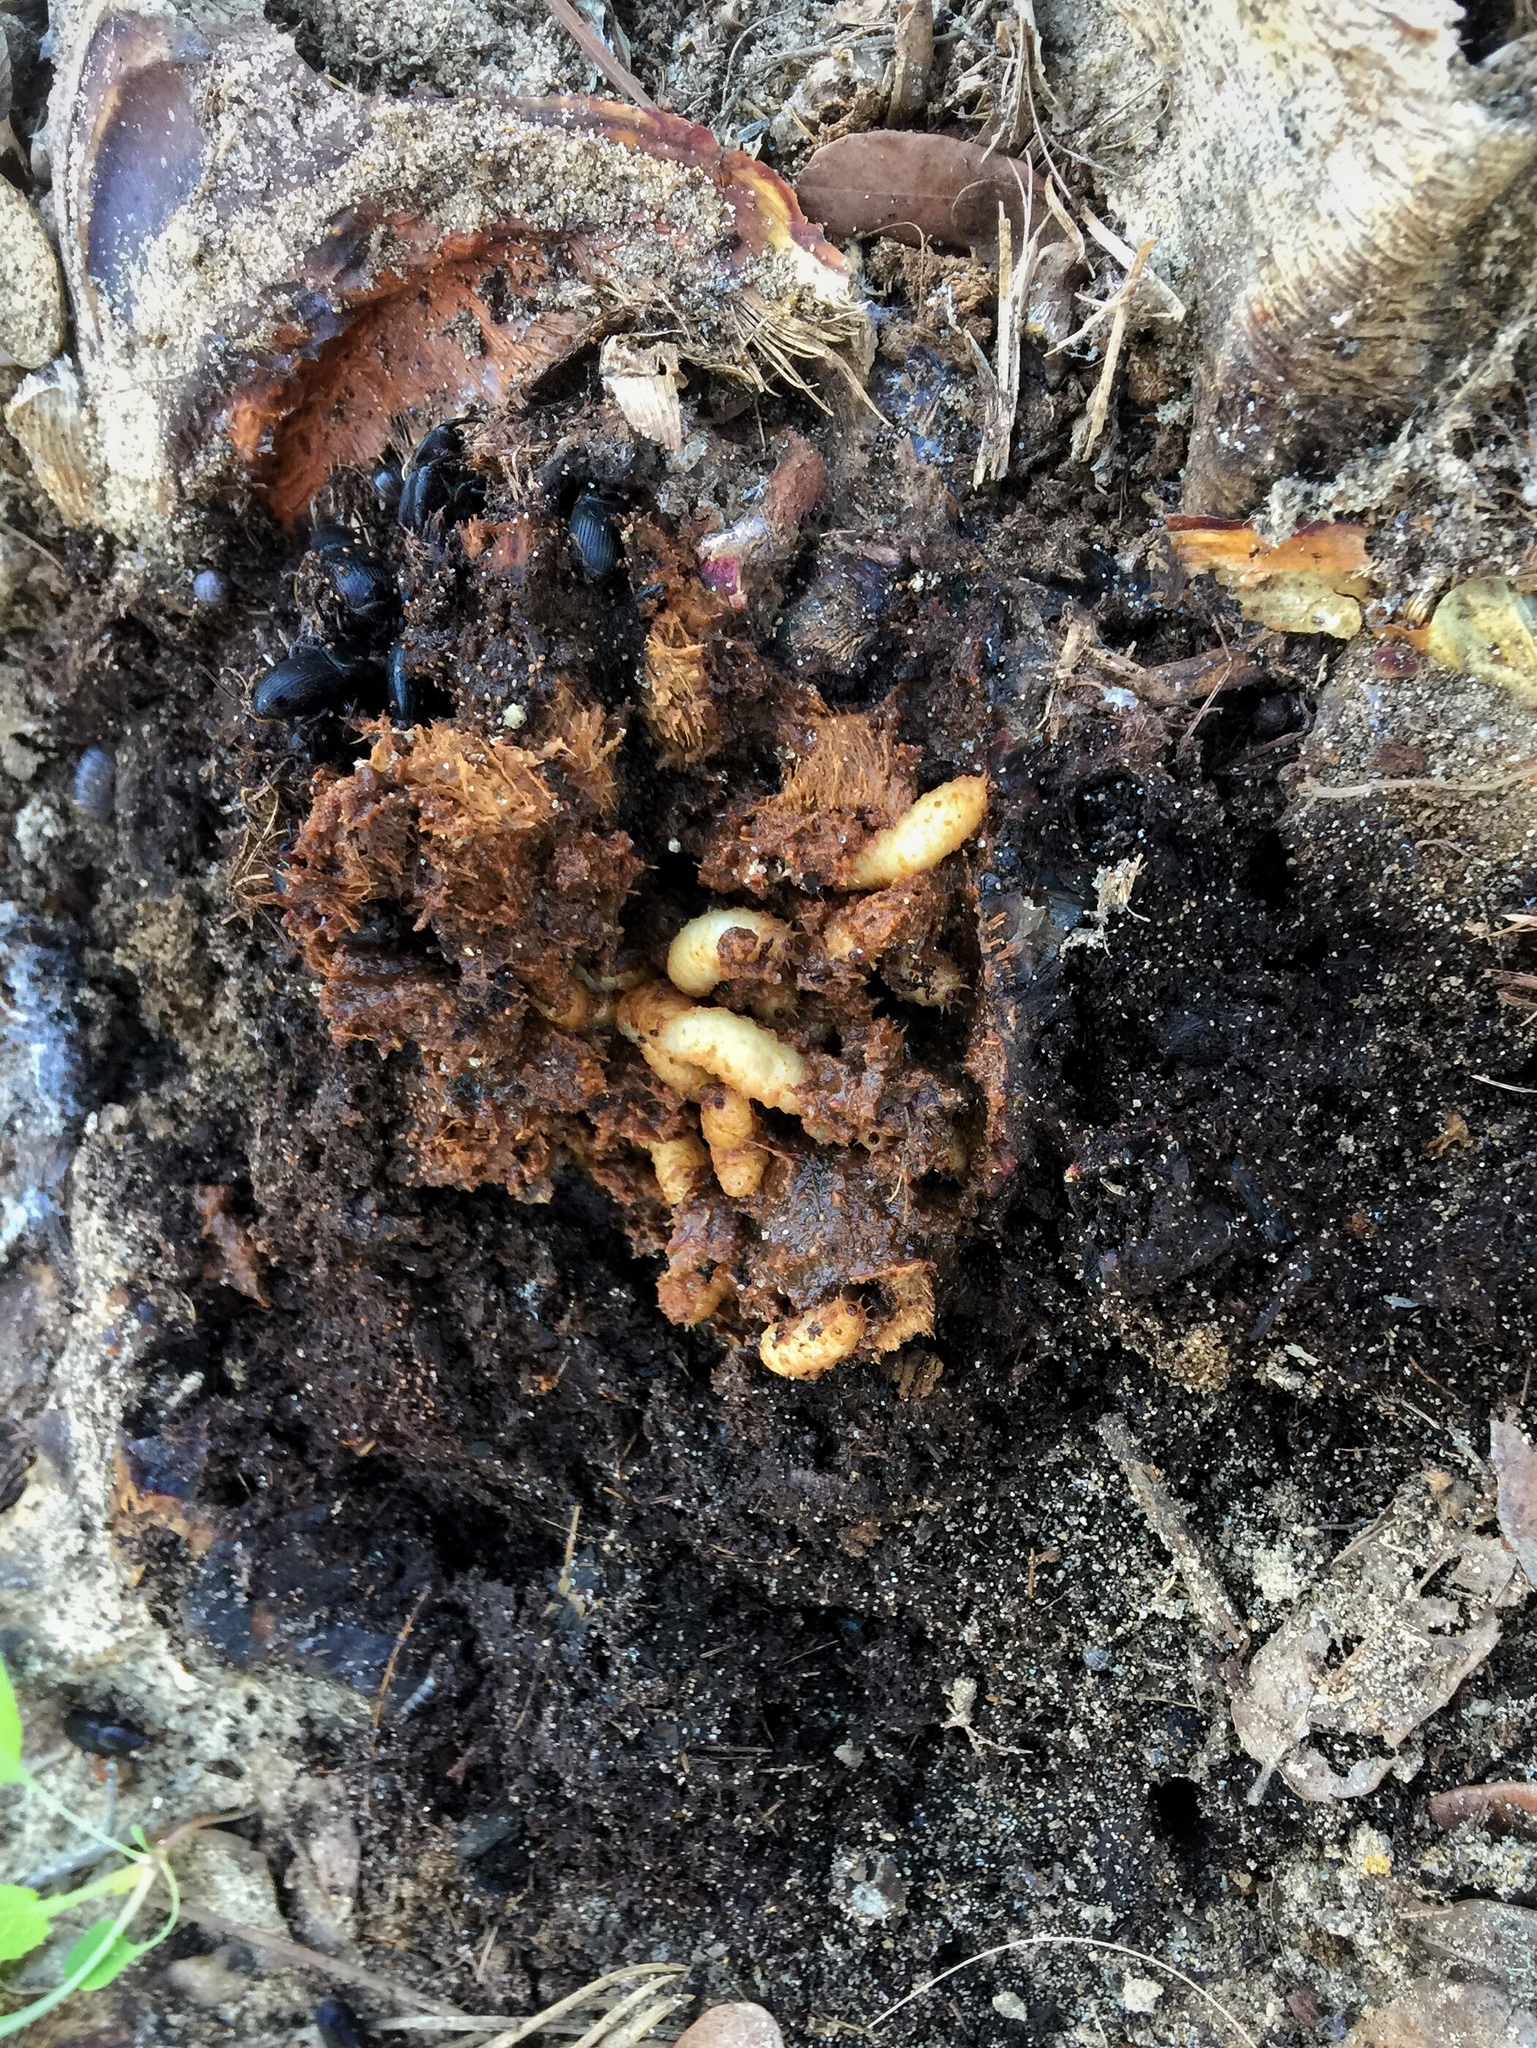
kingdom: Animalia
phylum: Arthropoda
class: Insecta
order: Coleoptera
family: Dryophthoridae
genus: Scyphophorus
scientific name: Scyphophorus acupunctatus
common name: Weevil
